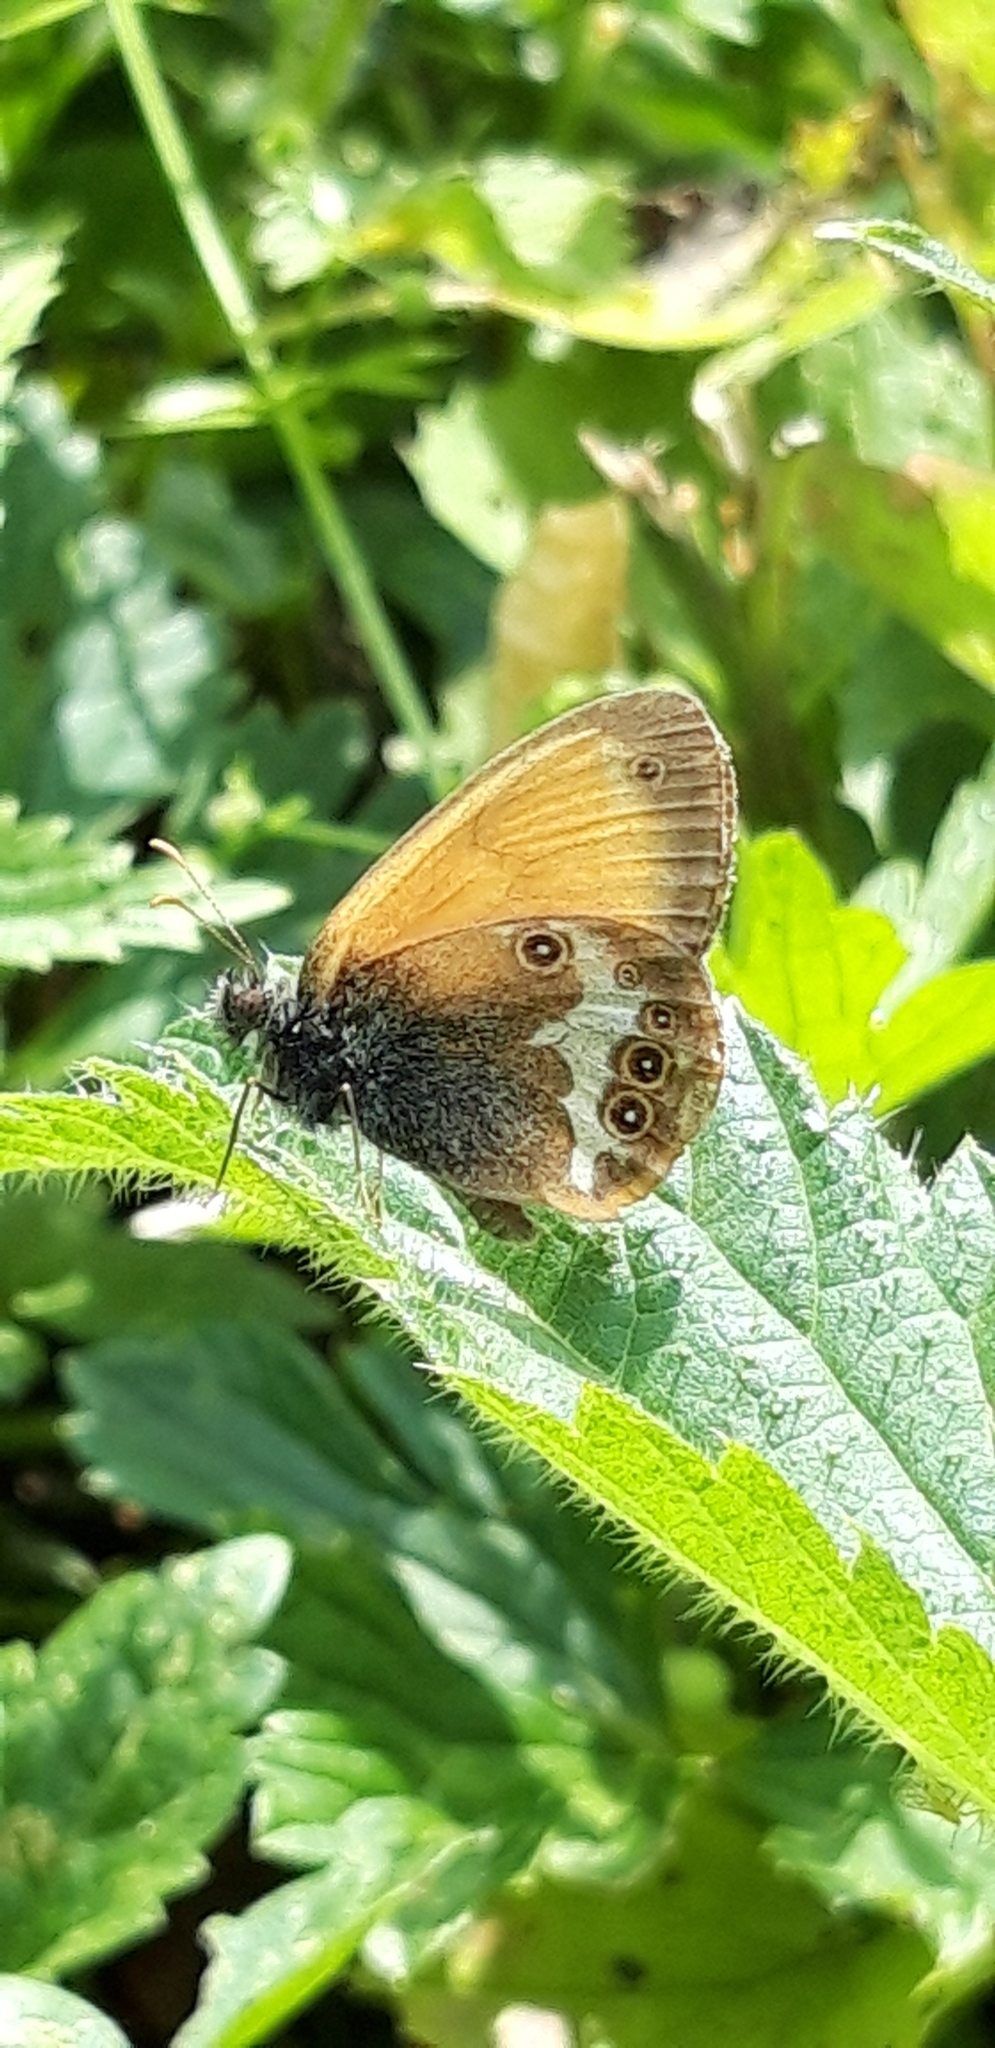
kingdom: Animalia
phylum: Arthropoda
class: Insecta
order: Lepidoptera
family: Nymphalidae
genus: Coenonympha
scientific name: Coenonympha arcania
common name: Pearly heath
